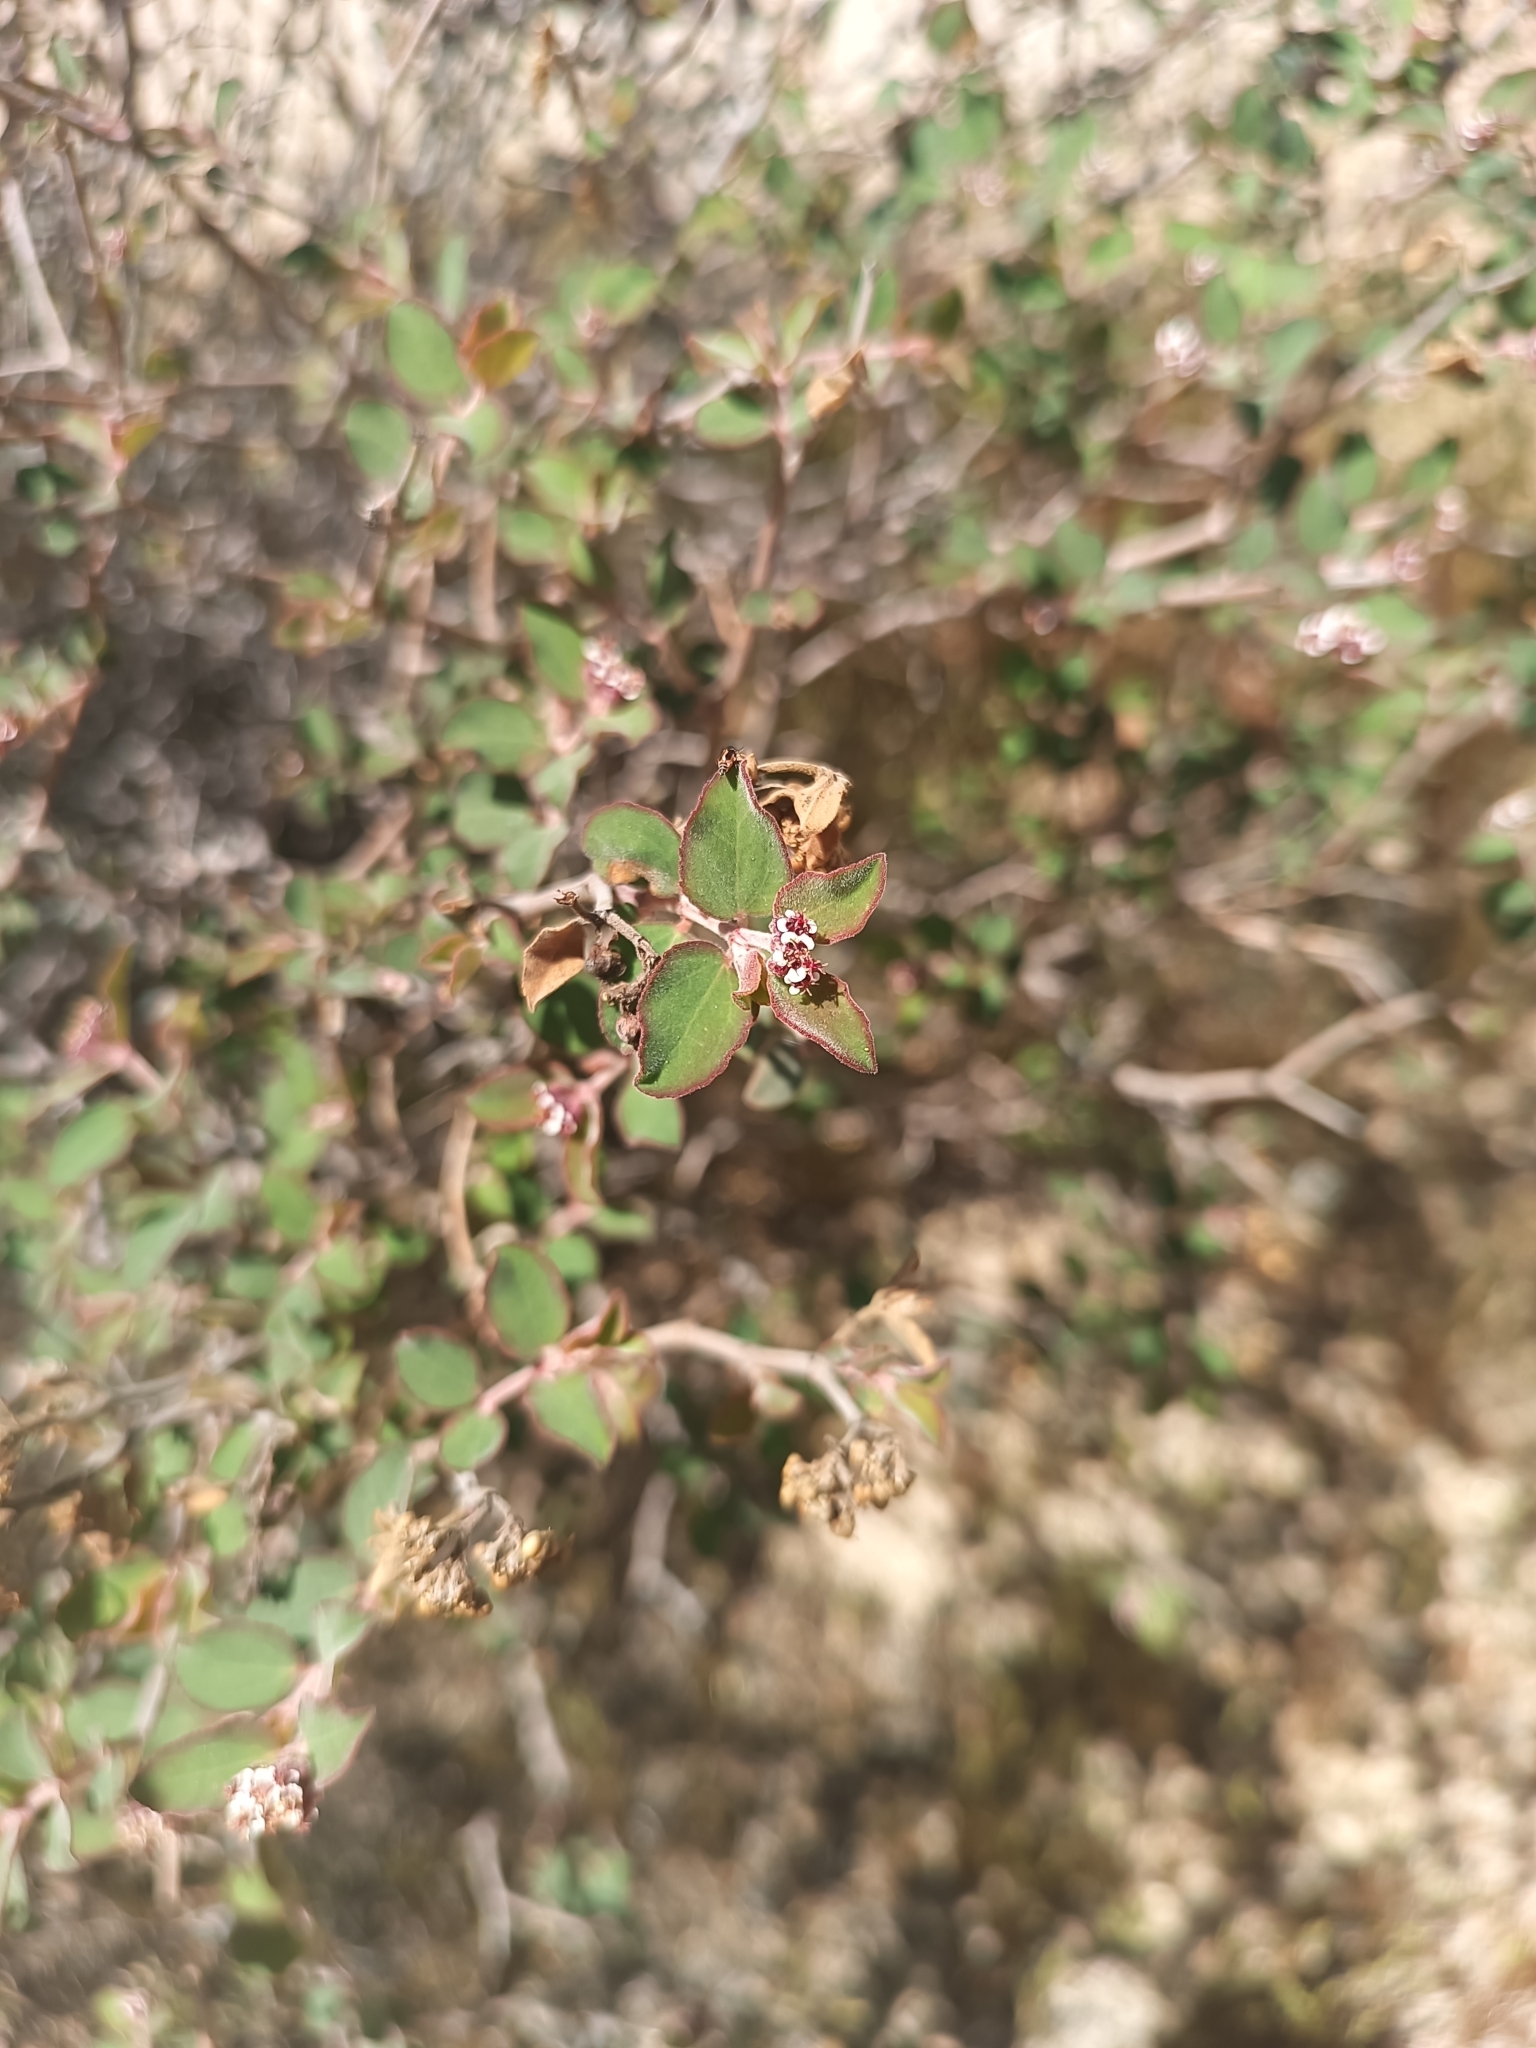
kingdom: Plantae
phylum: Tracheophyta
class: Magnoliopsida
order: Malpighiales
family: Euphorbiaceae
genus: Euphorbia
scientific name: Euphorbia tomentulosa
